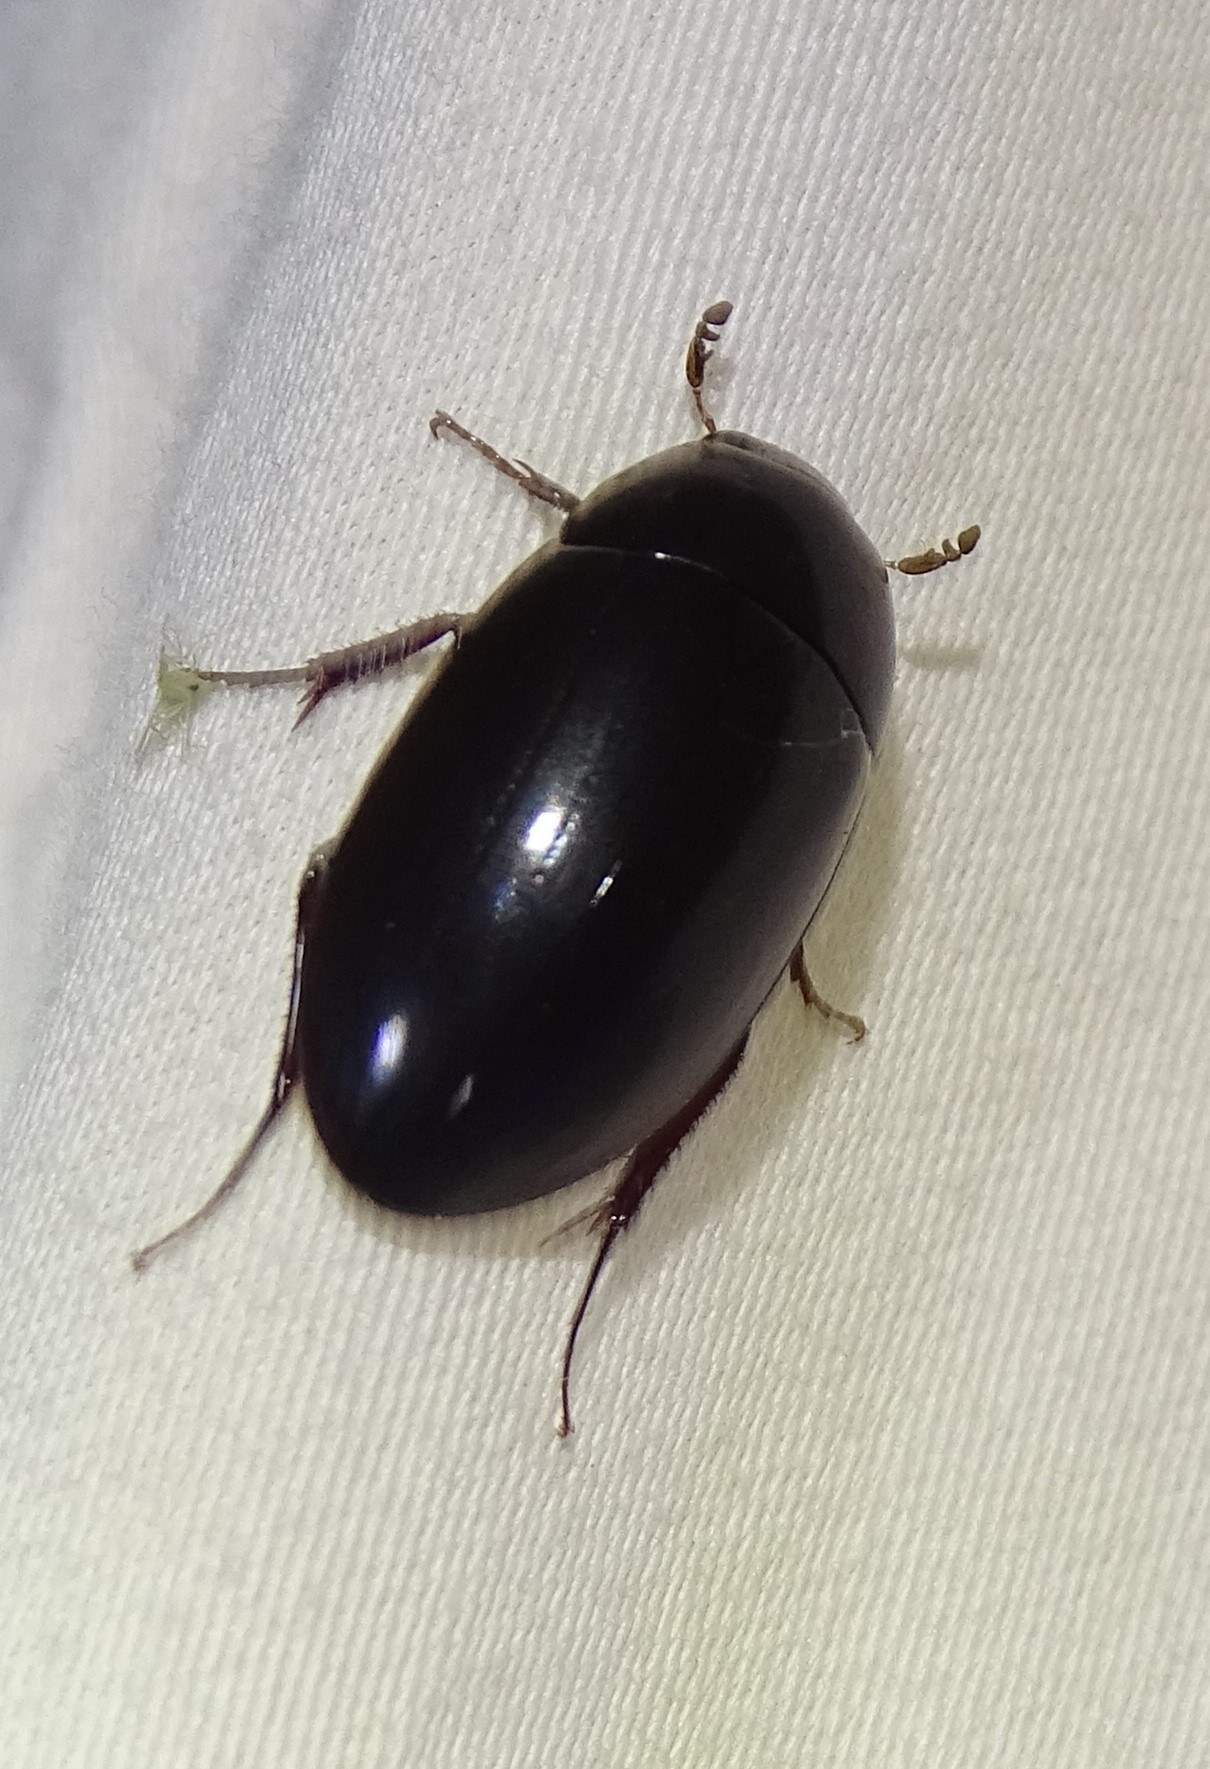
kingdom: Animalia
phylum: Arthropoda
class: Insecta
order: Coleoptera
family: Hydrophilidae
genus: Hydrobiomorpha
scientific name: Hydrobiomorpha casta
